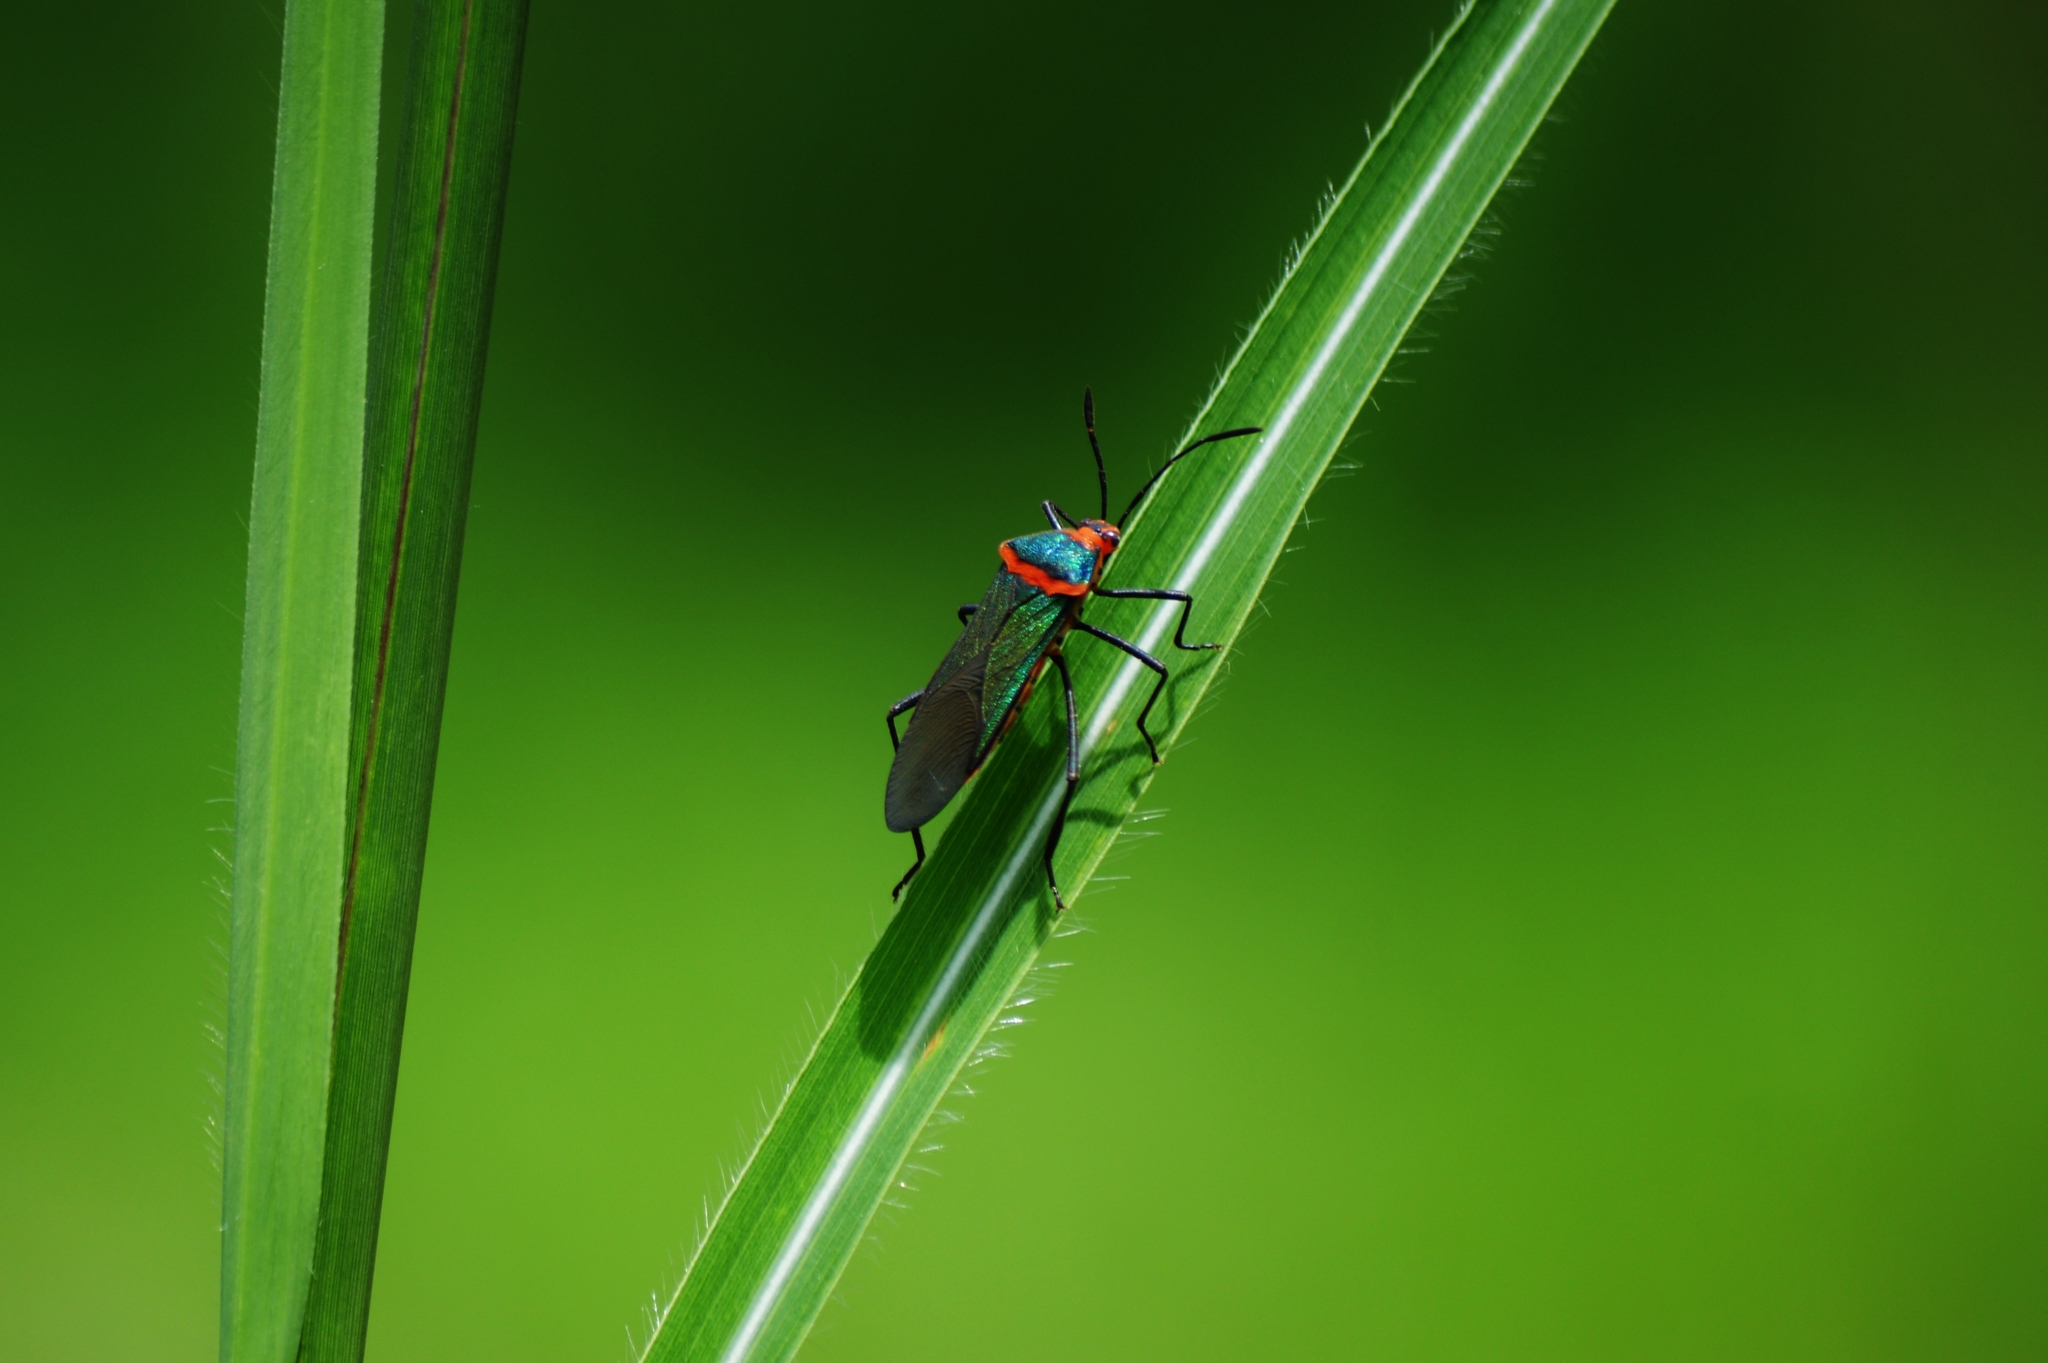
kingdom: Animalia
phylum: Arthropoda
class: Insecta
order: Hemiptera
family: Coreidae
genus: Sphictyrtus
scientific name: Sphictyrtus chrysis
